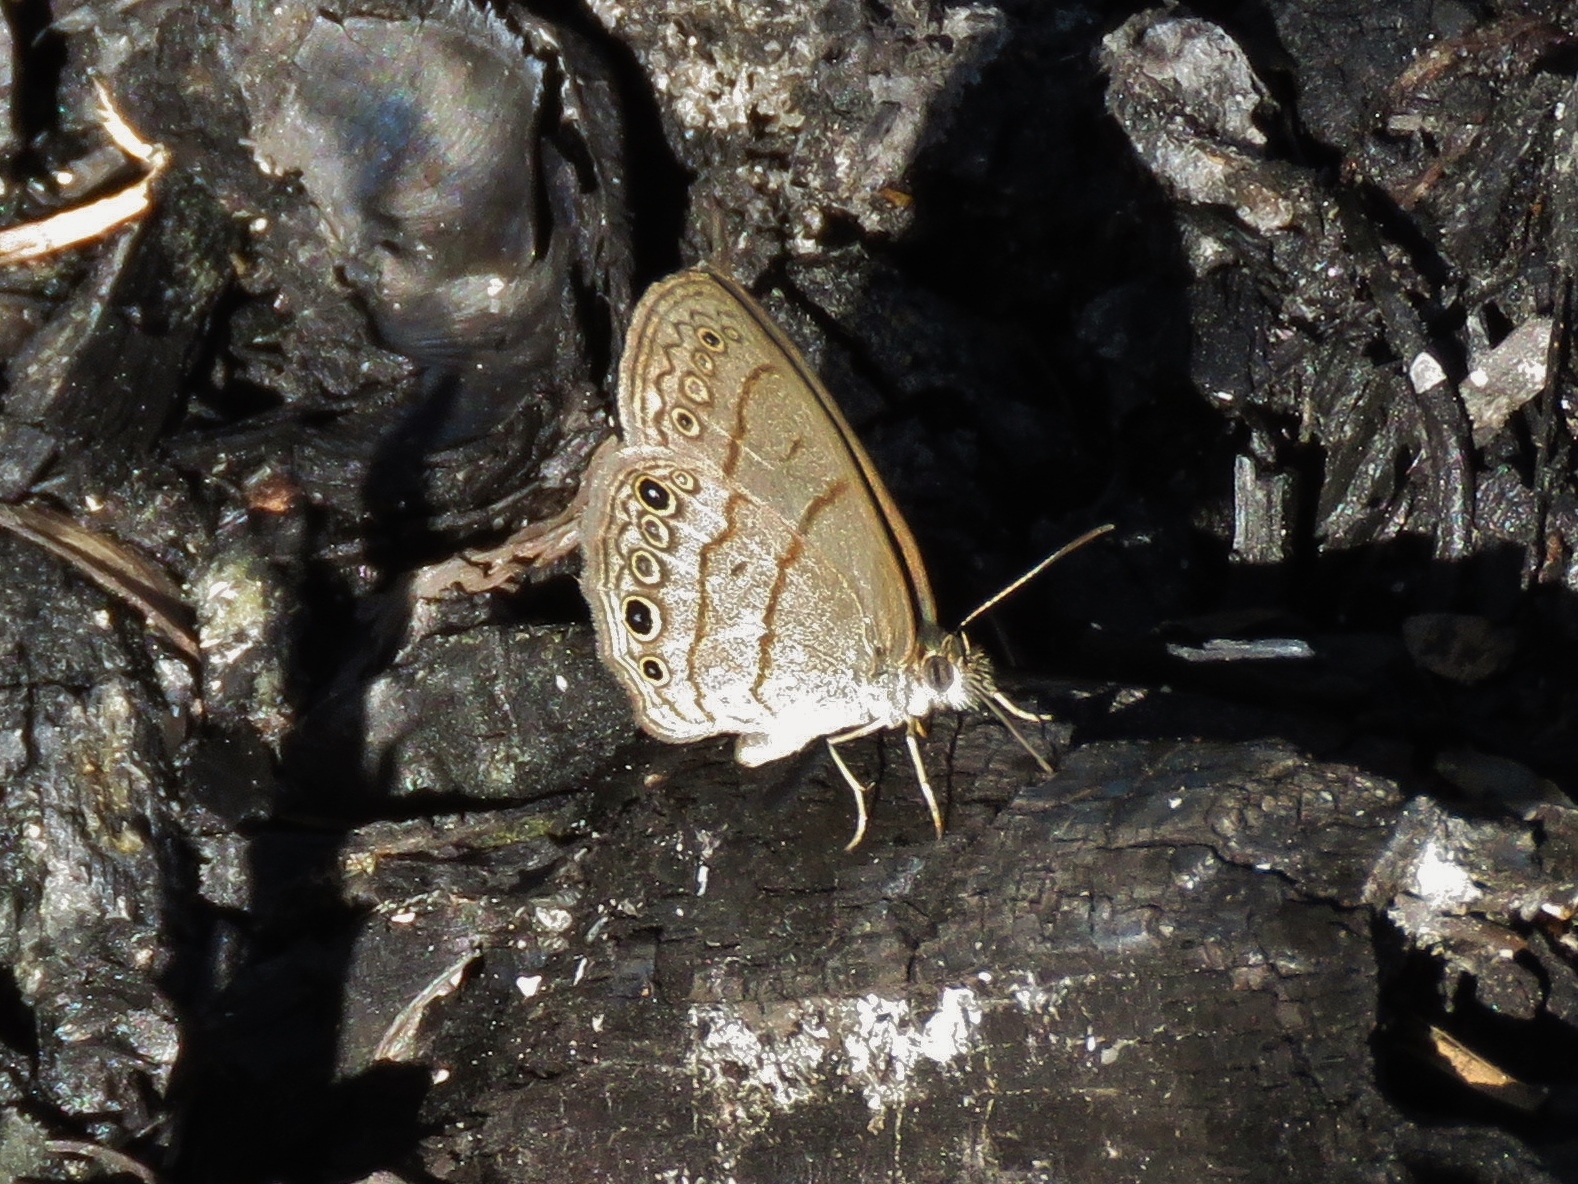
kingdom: Animalia
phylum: Arthropoda
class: Insecta
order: Lepidoptera
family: Nymphalidae
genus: Hermeuptychia
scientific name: Hermeuptychia hermes
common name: Hermes satyr
